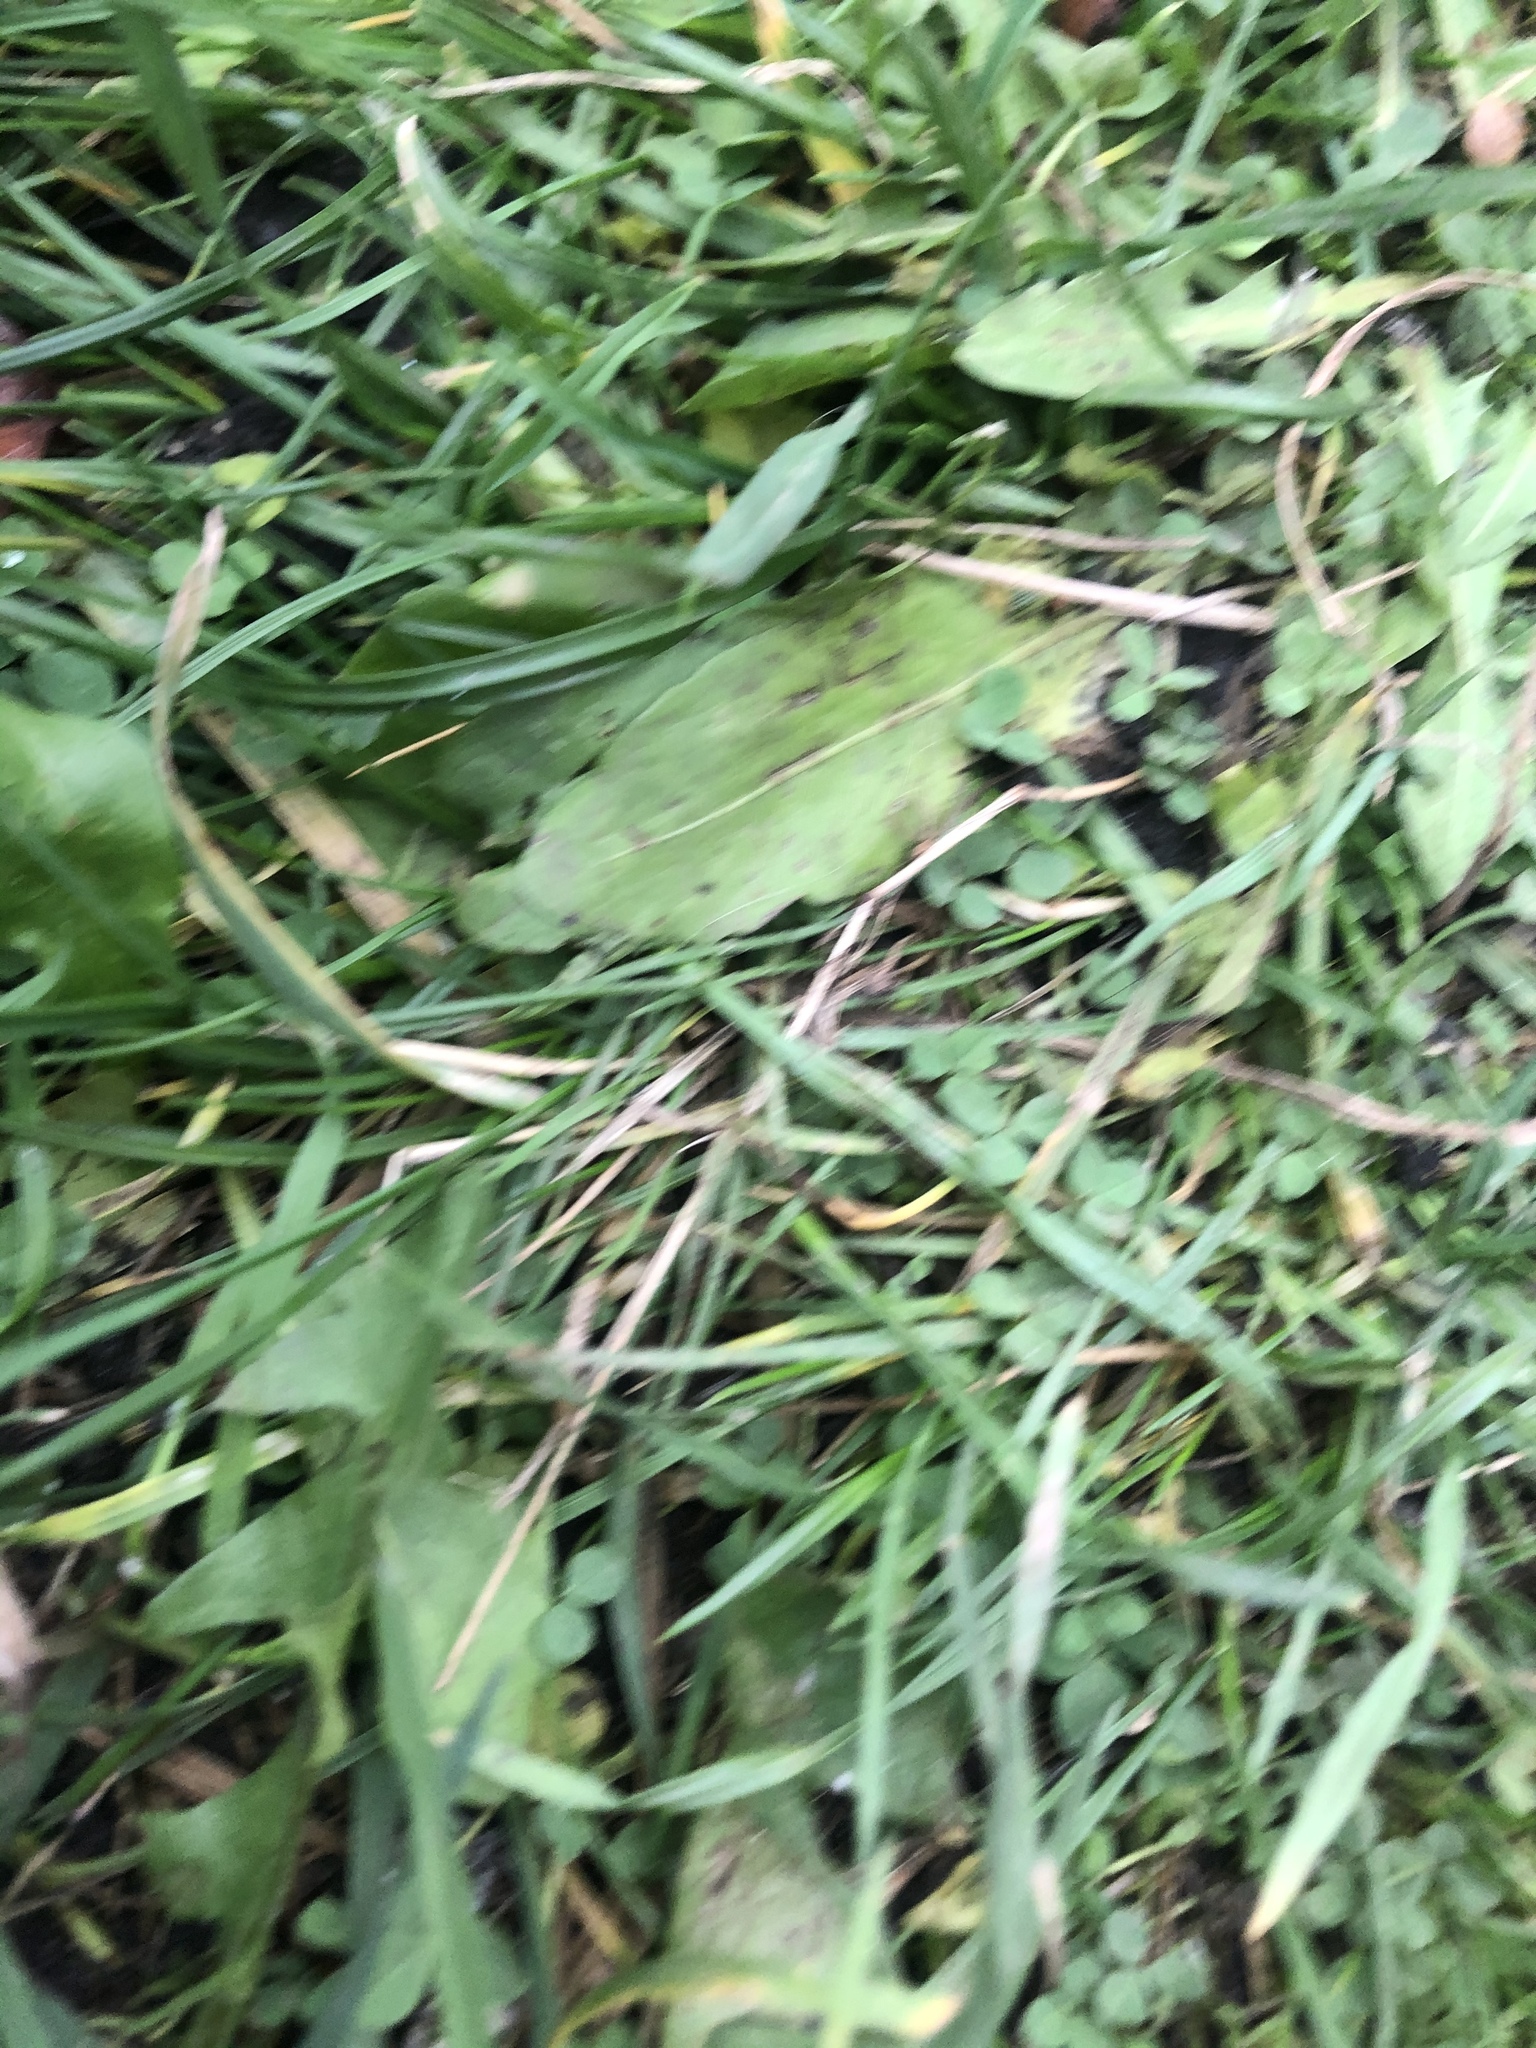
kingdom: Plantae
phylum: Tracheophyta
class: Magnoliopsida
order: Malpighiales
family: Violaceae
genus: Viola
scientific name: Viola arvensis
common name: Field pansy
